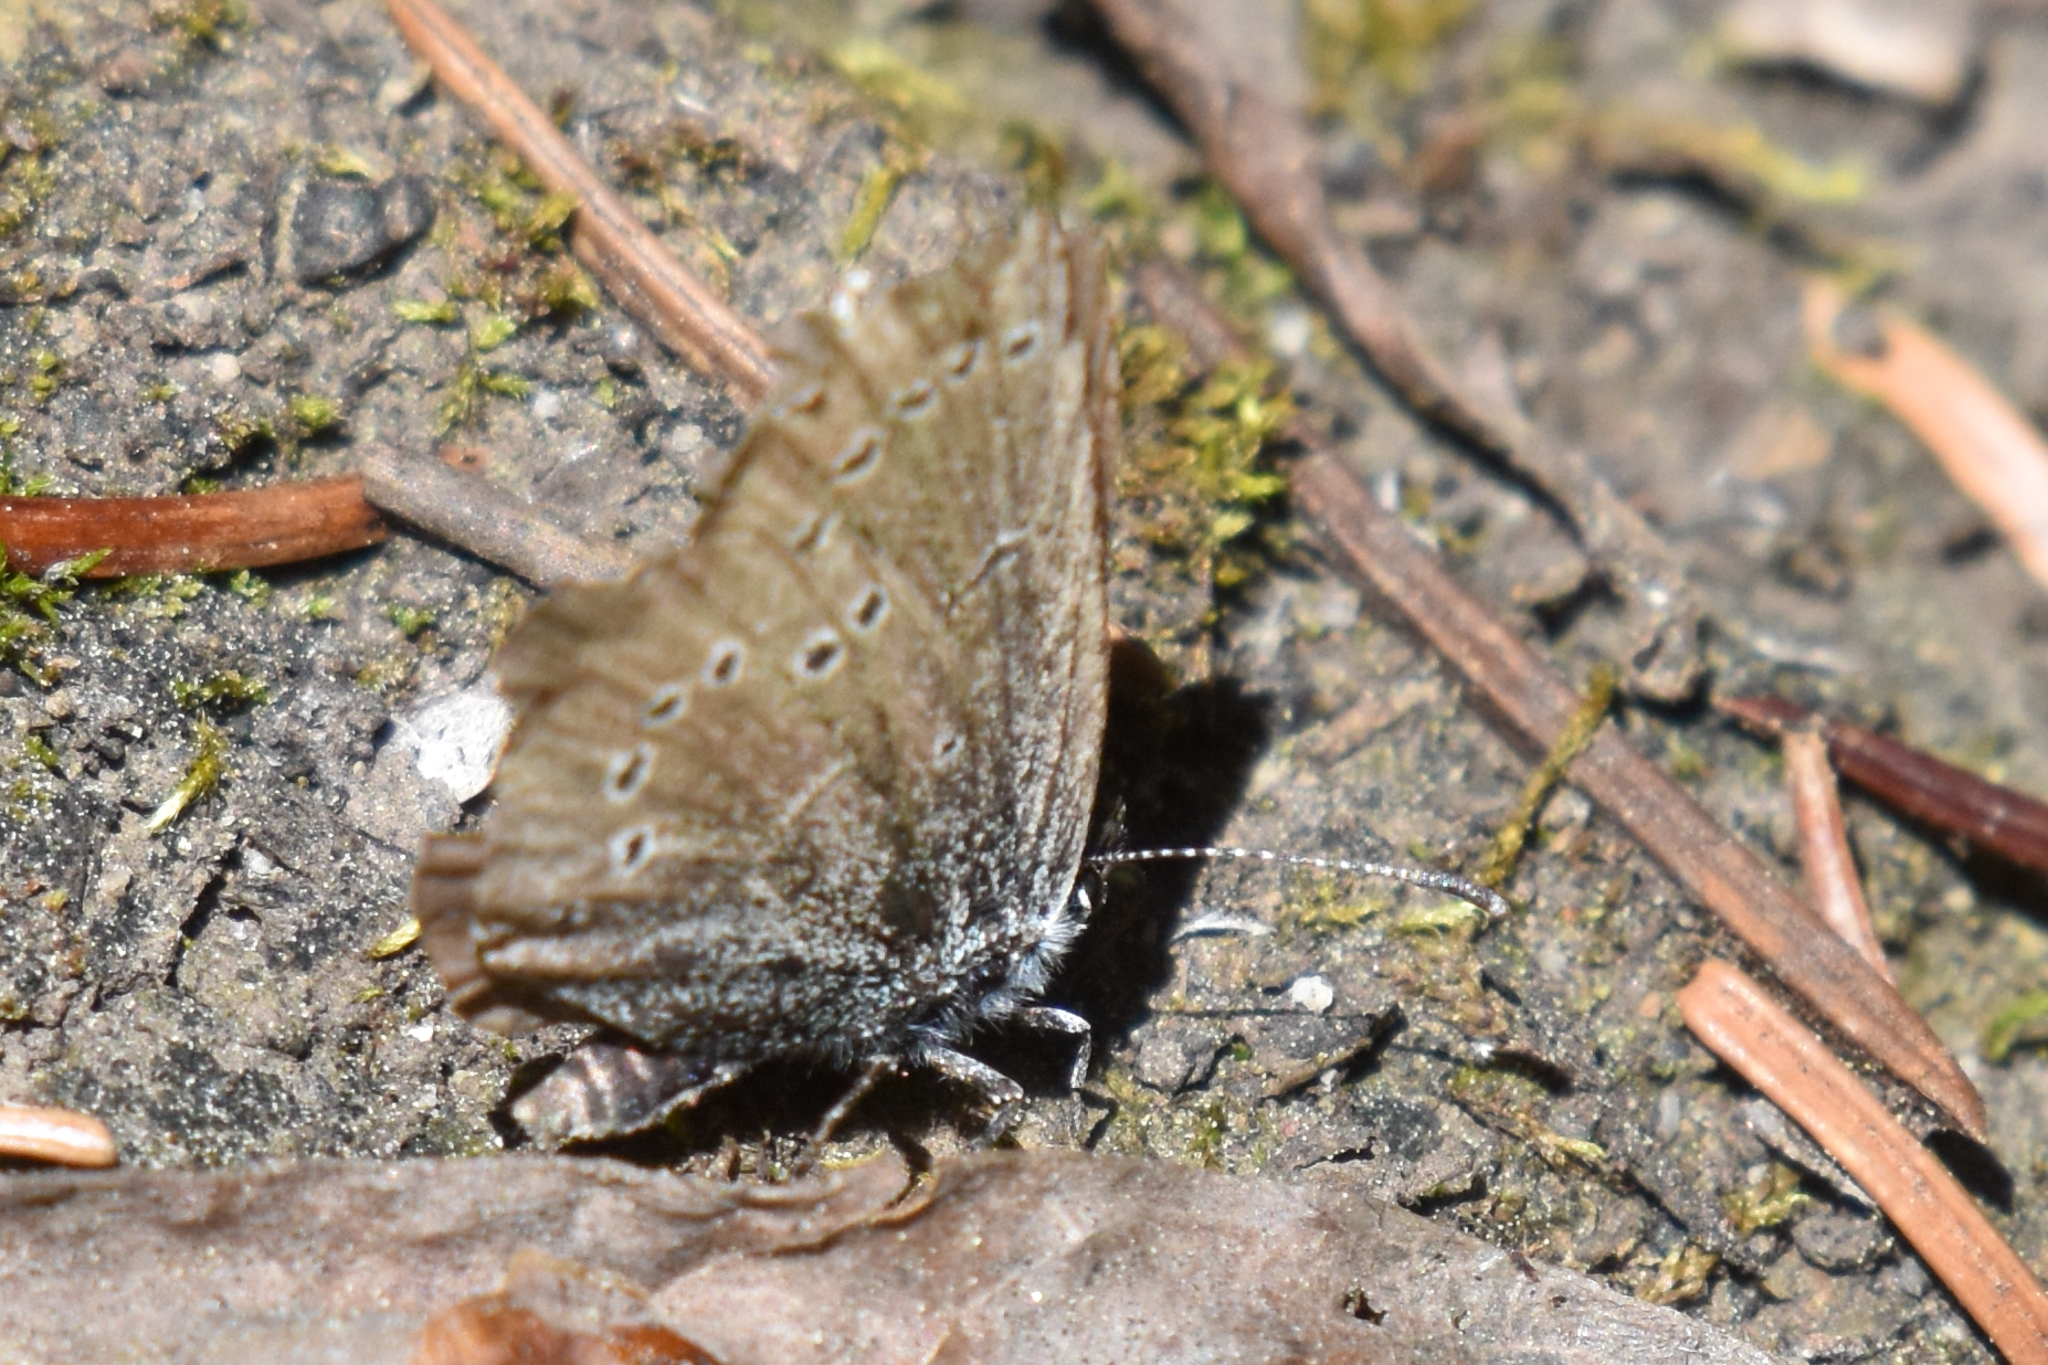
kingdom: Animalia
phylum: Arthropoda
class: Insecta
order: Lepidoptera
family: Lycaenidae
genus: Glaucopsyche
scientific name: Glaucopsyche lygdamus
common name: Silvery blue
